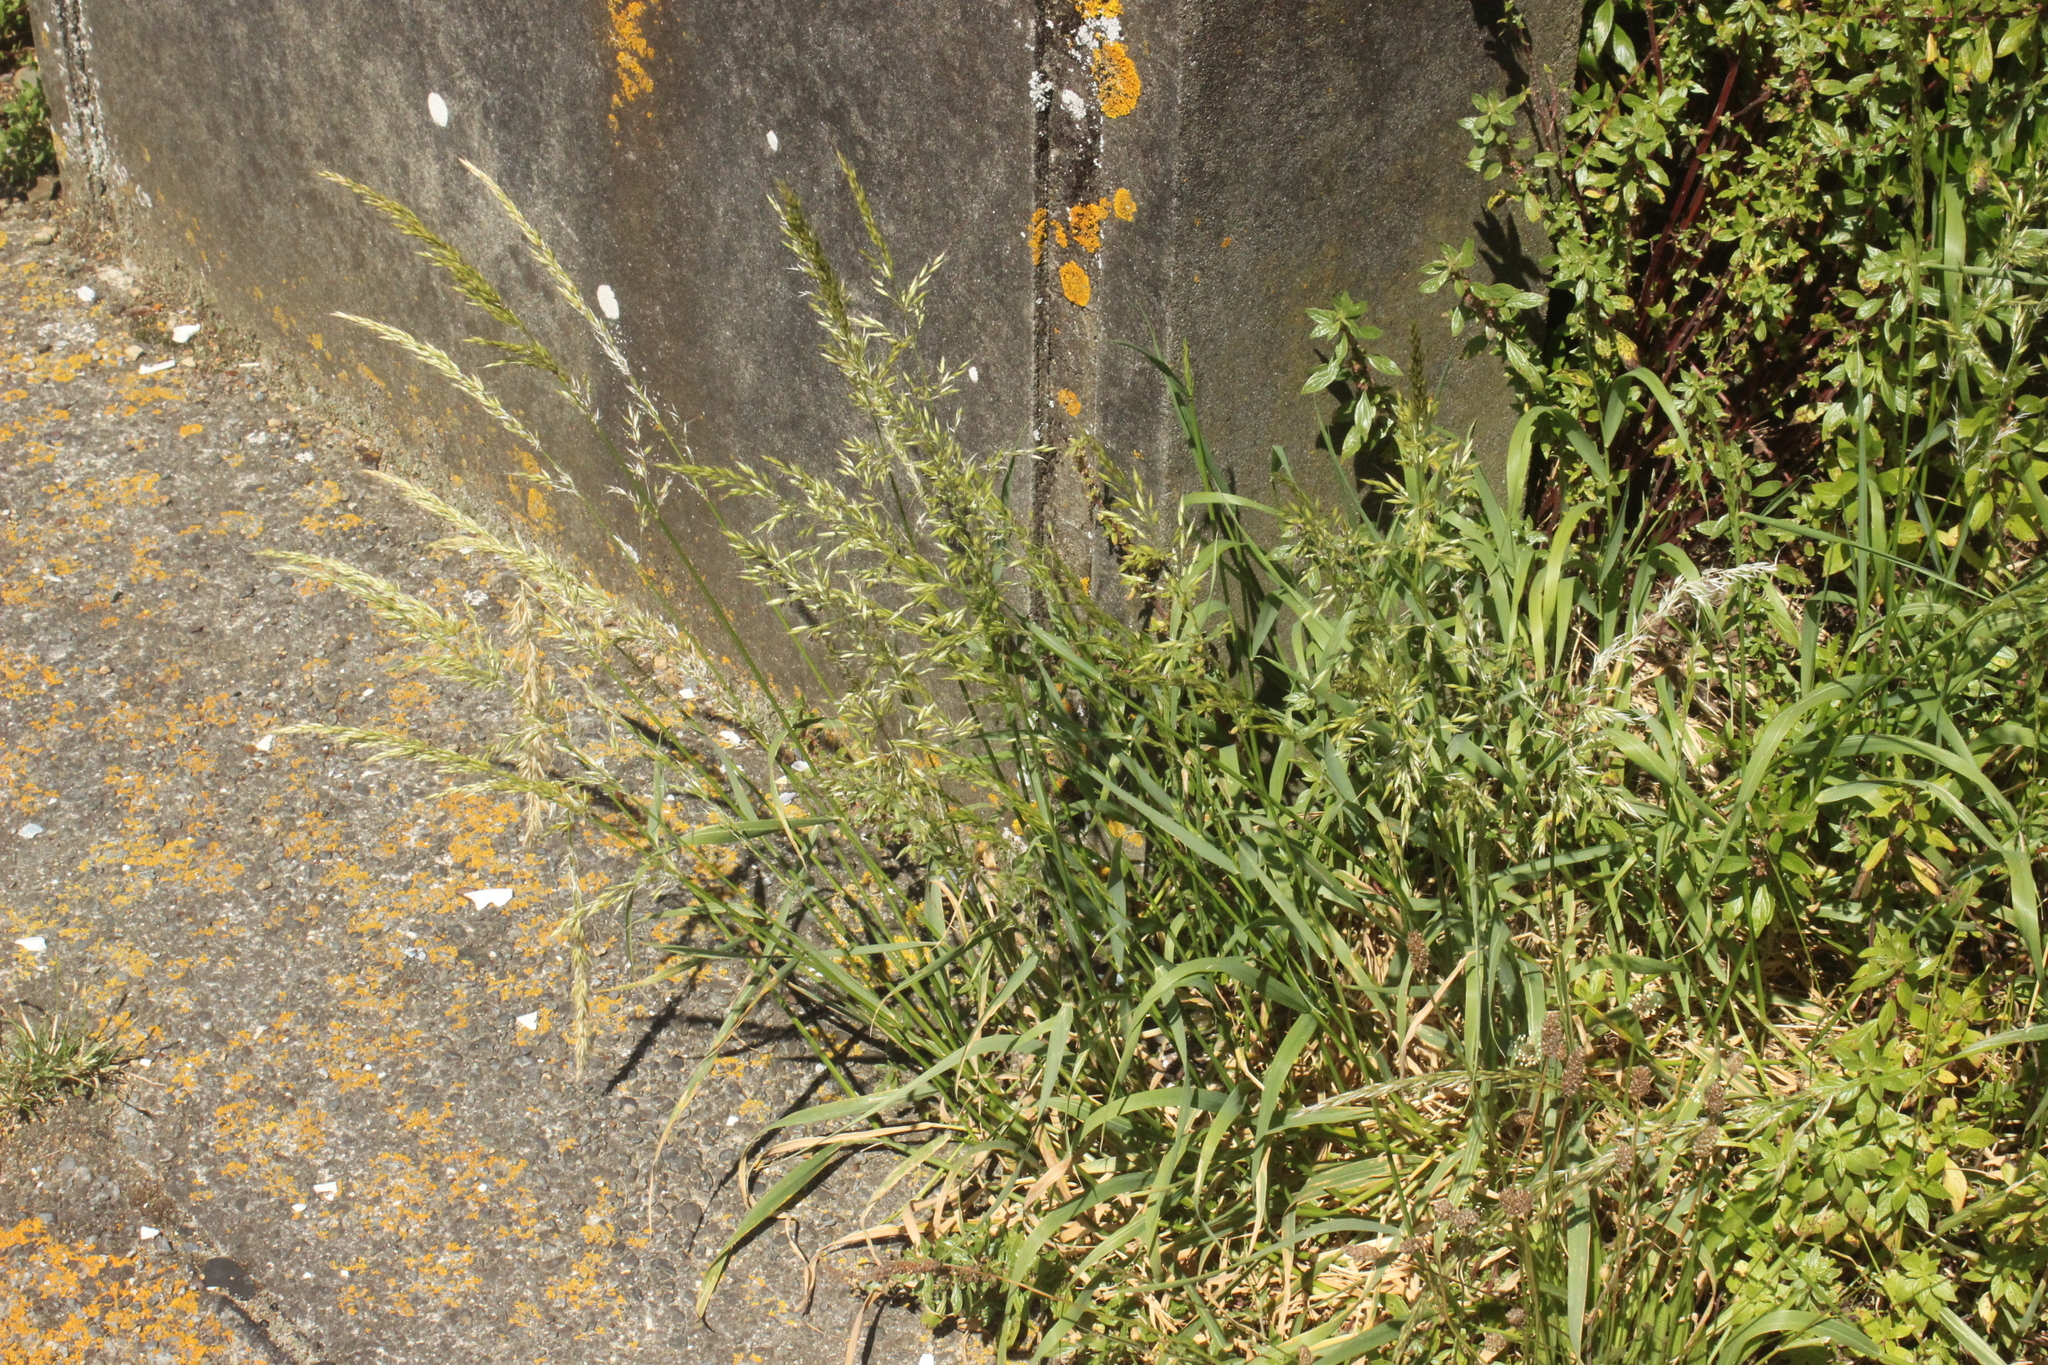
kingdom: Plantae
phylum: Tracheophyta
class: Liliopsida
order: Poales
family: Poaceae
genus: Arrhenatherum
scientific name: Arrhenatherum elatius
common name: Tall oatgrass
